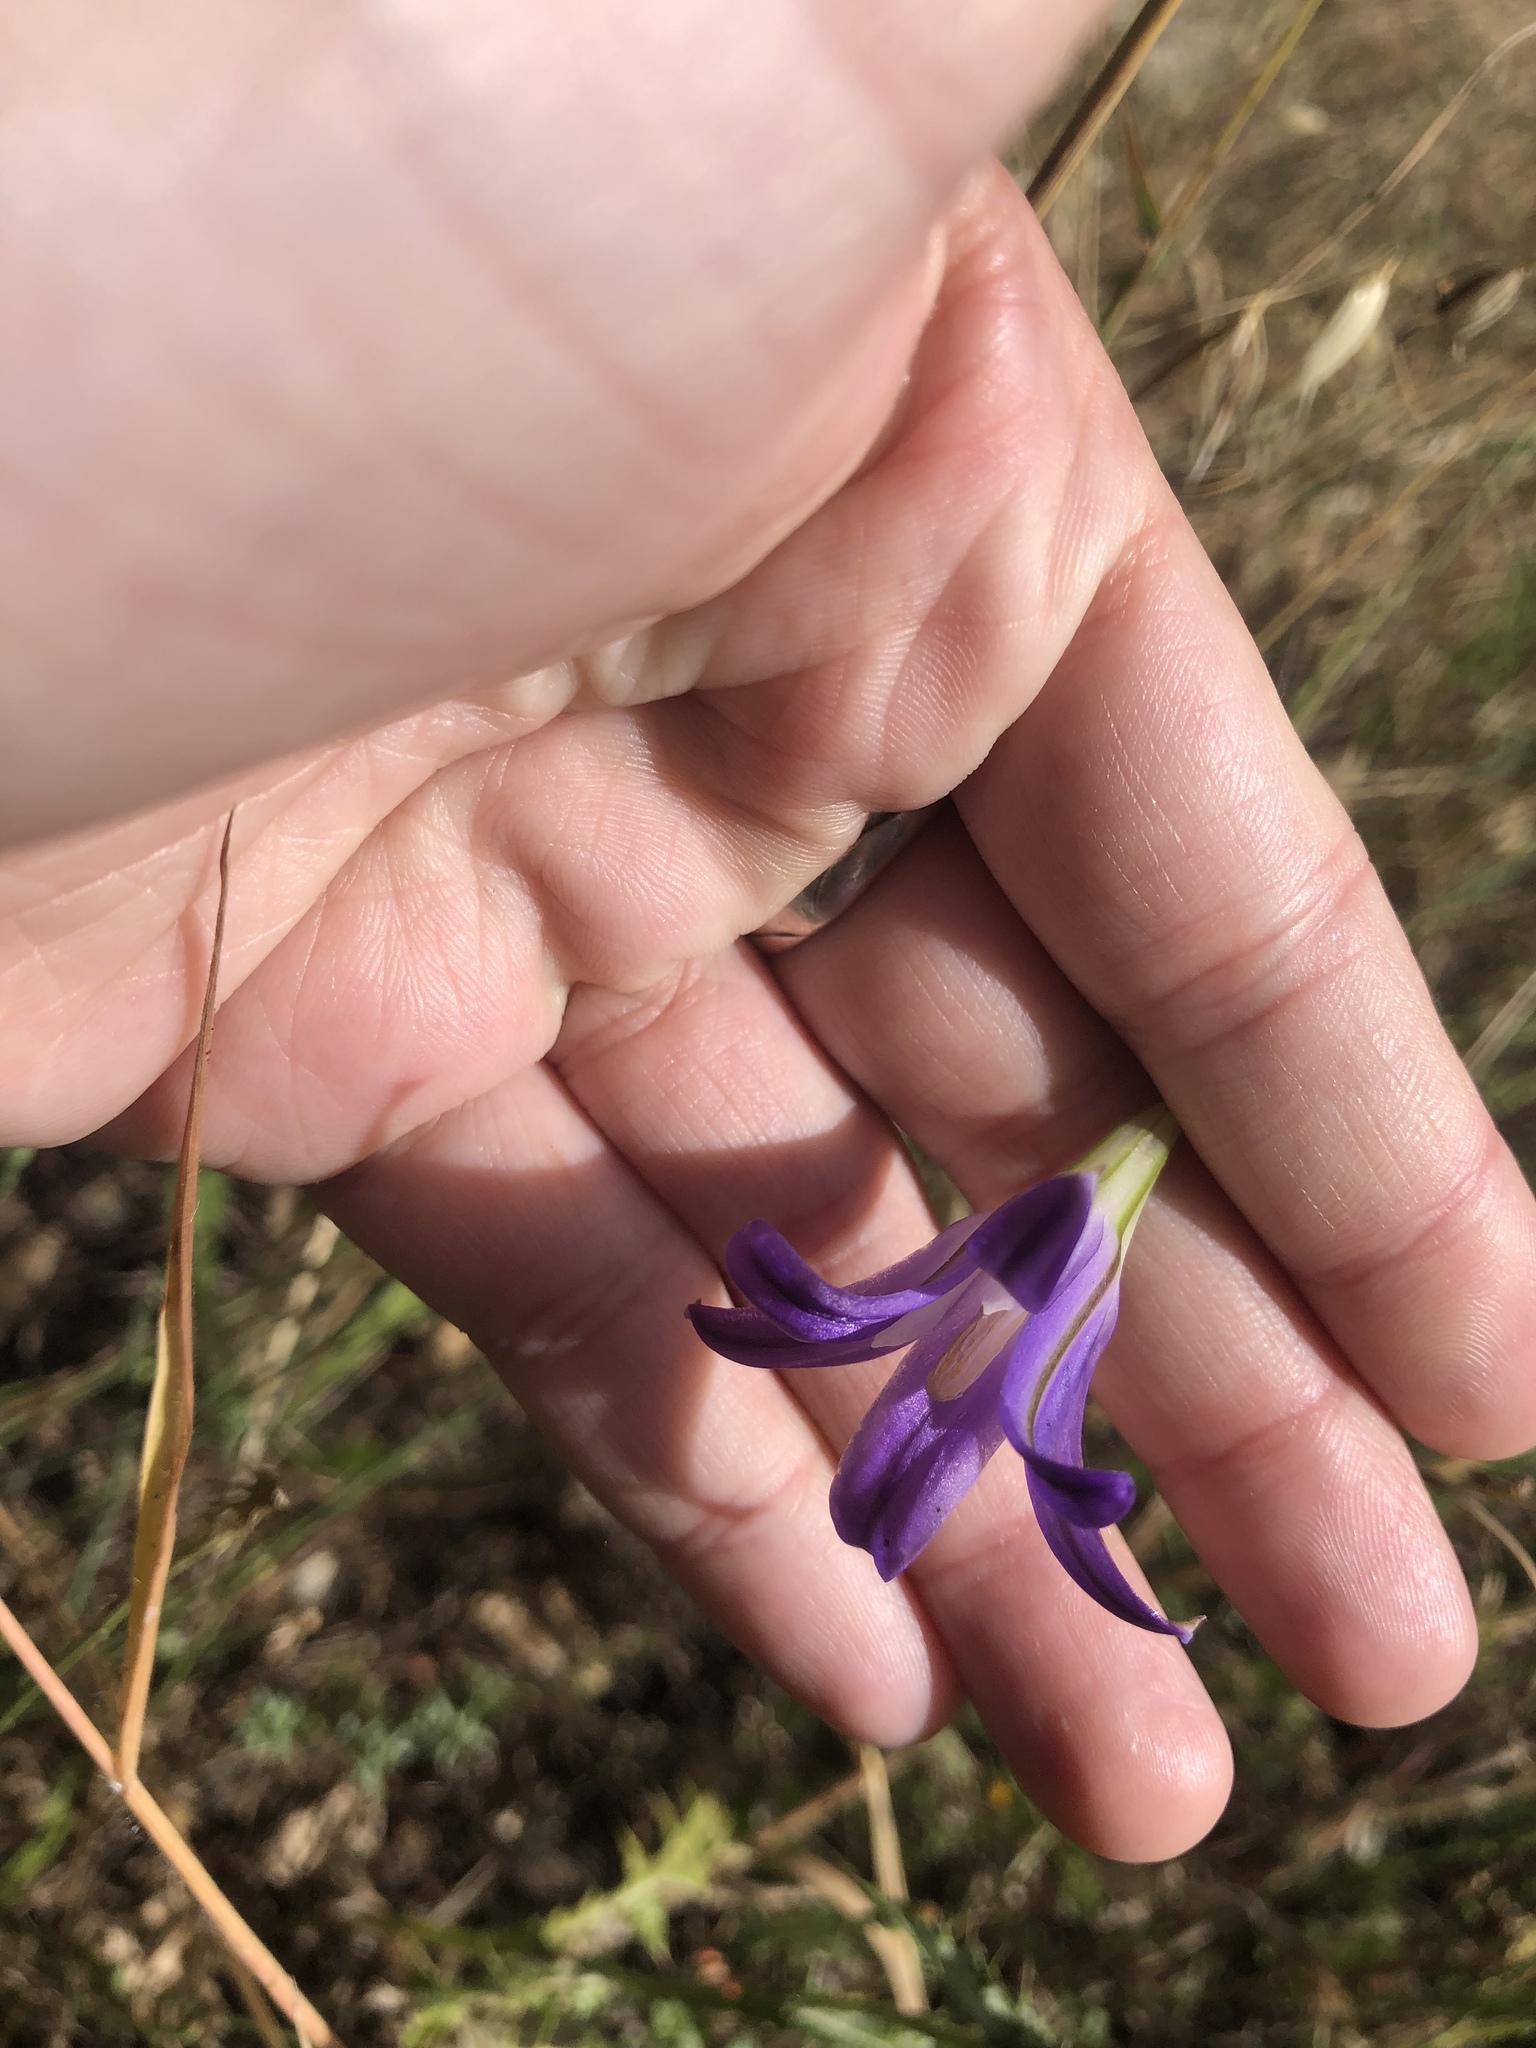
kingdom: Plantae
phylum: Tracheophyta
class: Liliopsida
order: Asparagales
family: Asparagaceae
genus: Brodiaea
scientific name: Brodiaea elegans
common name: Elegant cluster-lily
